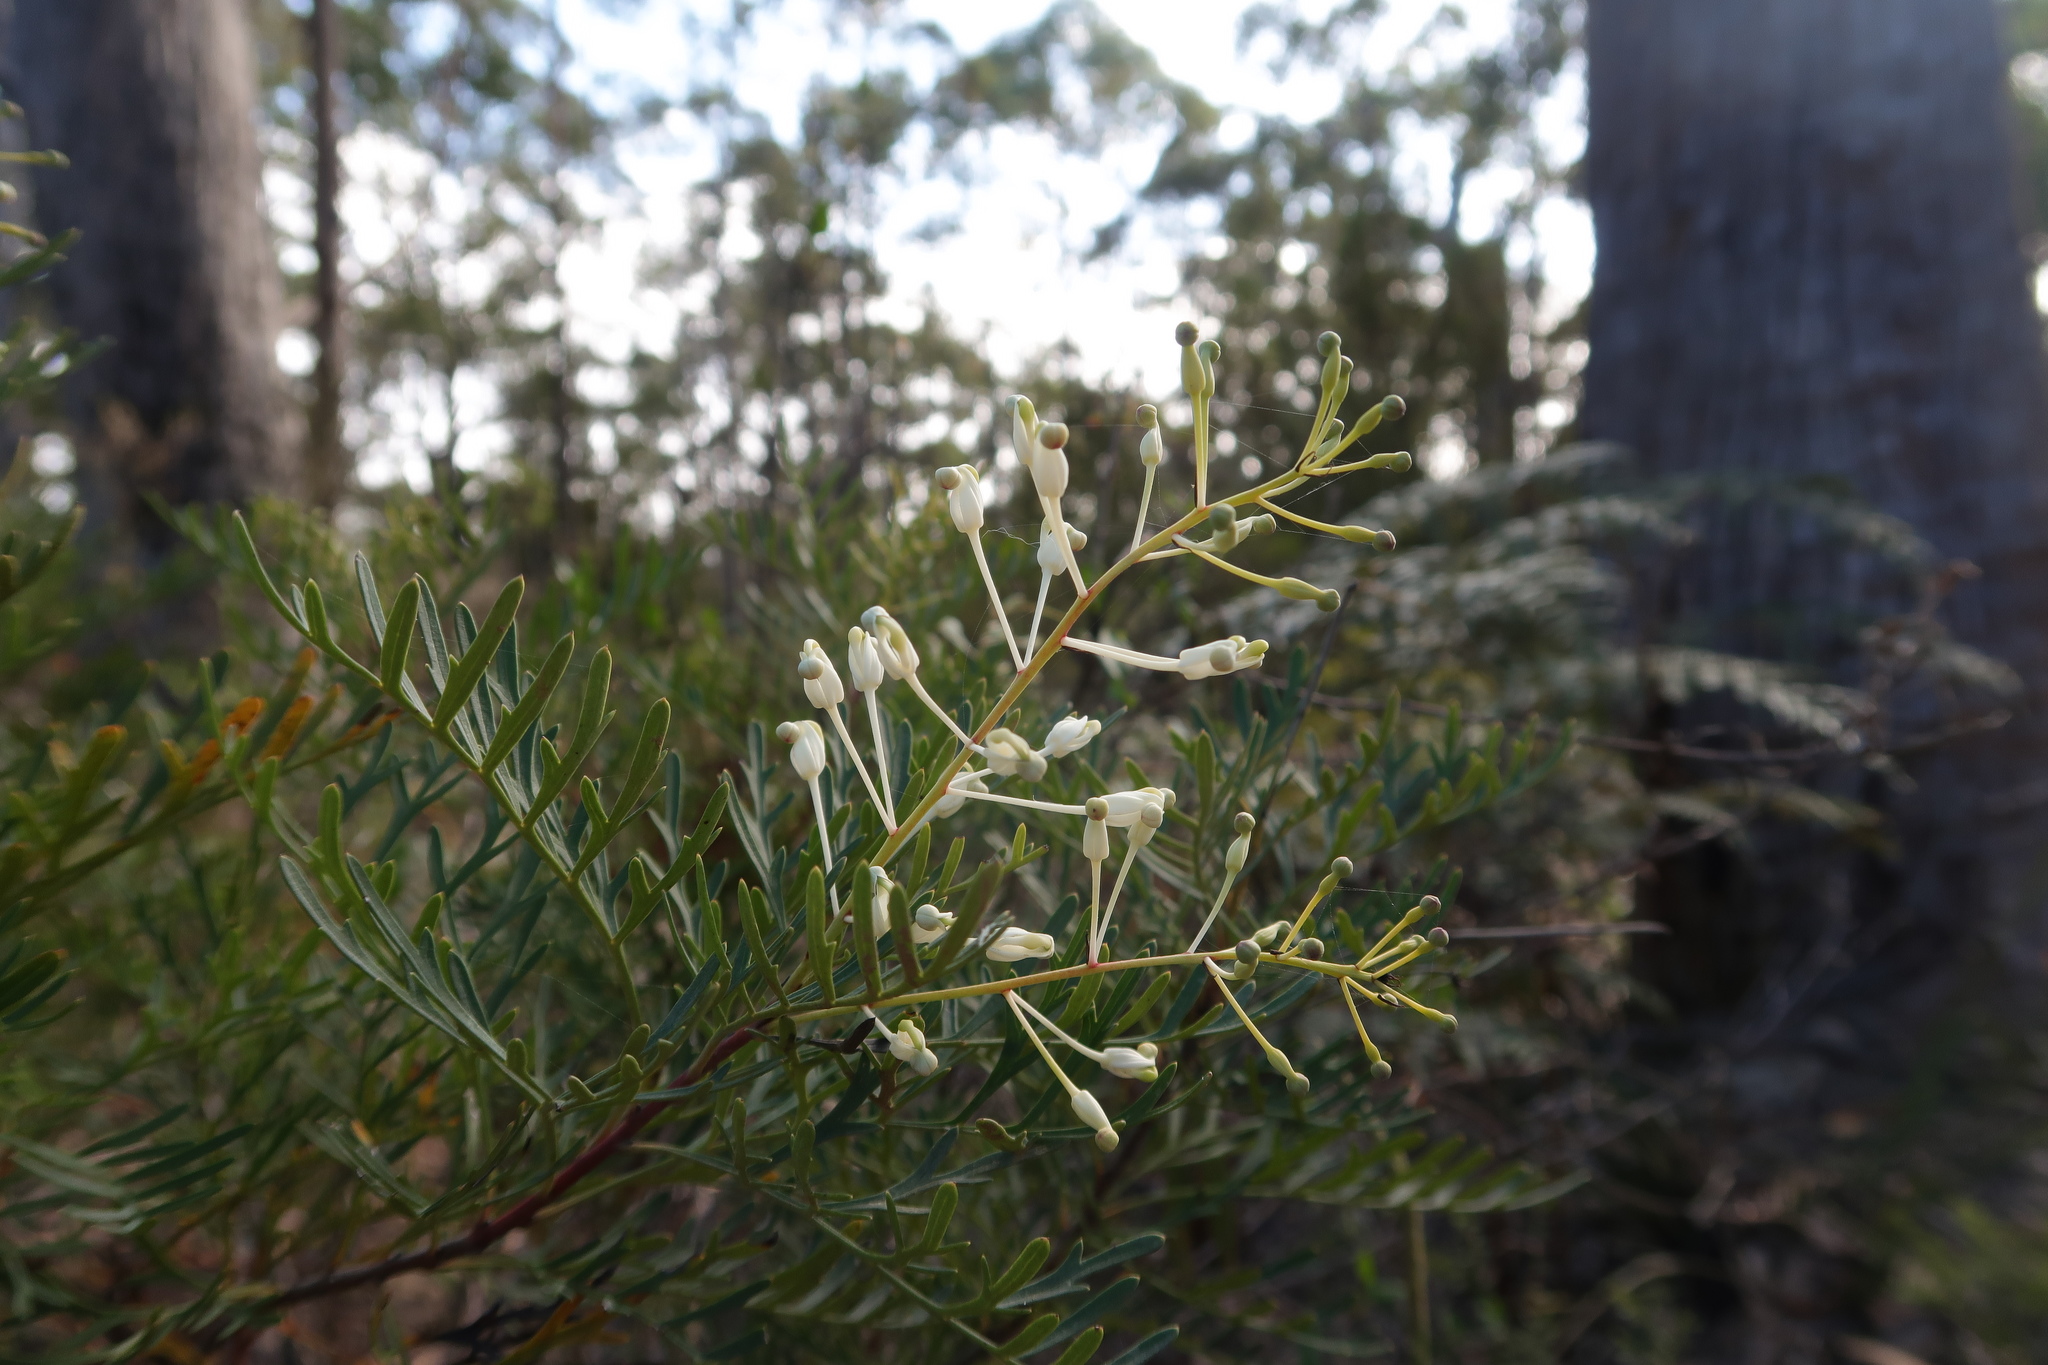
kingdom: Plantae
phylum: Tracheophyta
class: Magnoliopsida
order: Proteales
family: Proteaceae
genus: Lomatia
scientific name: Lomatia tinctoria
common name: Guitar plant
